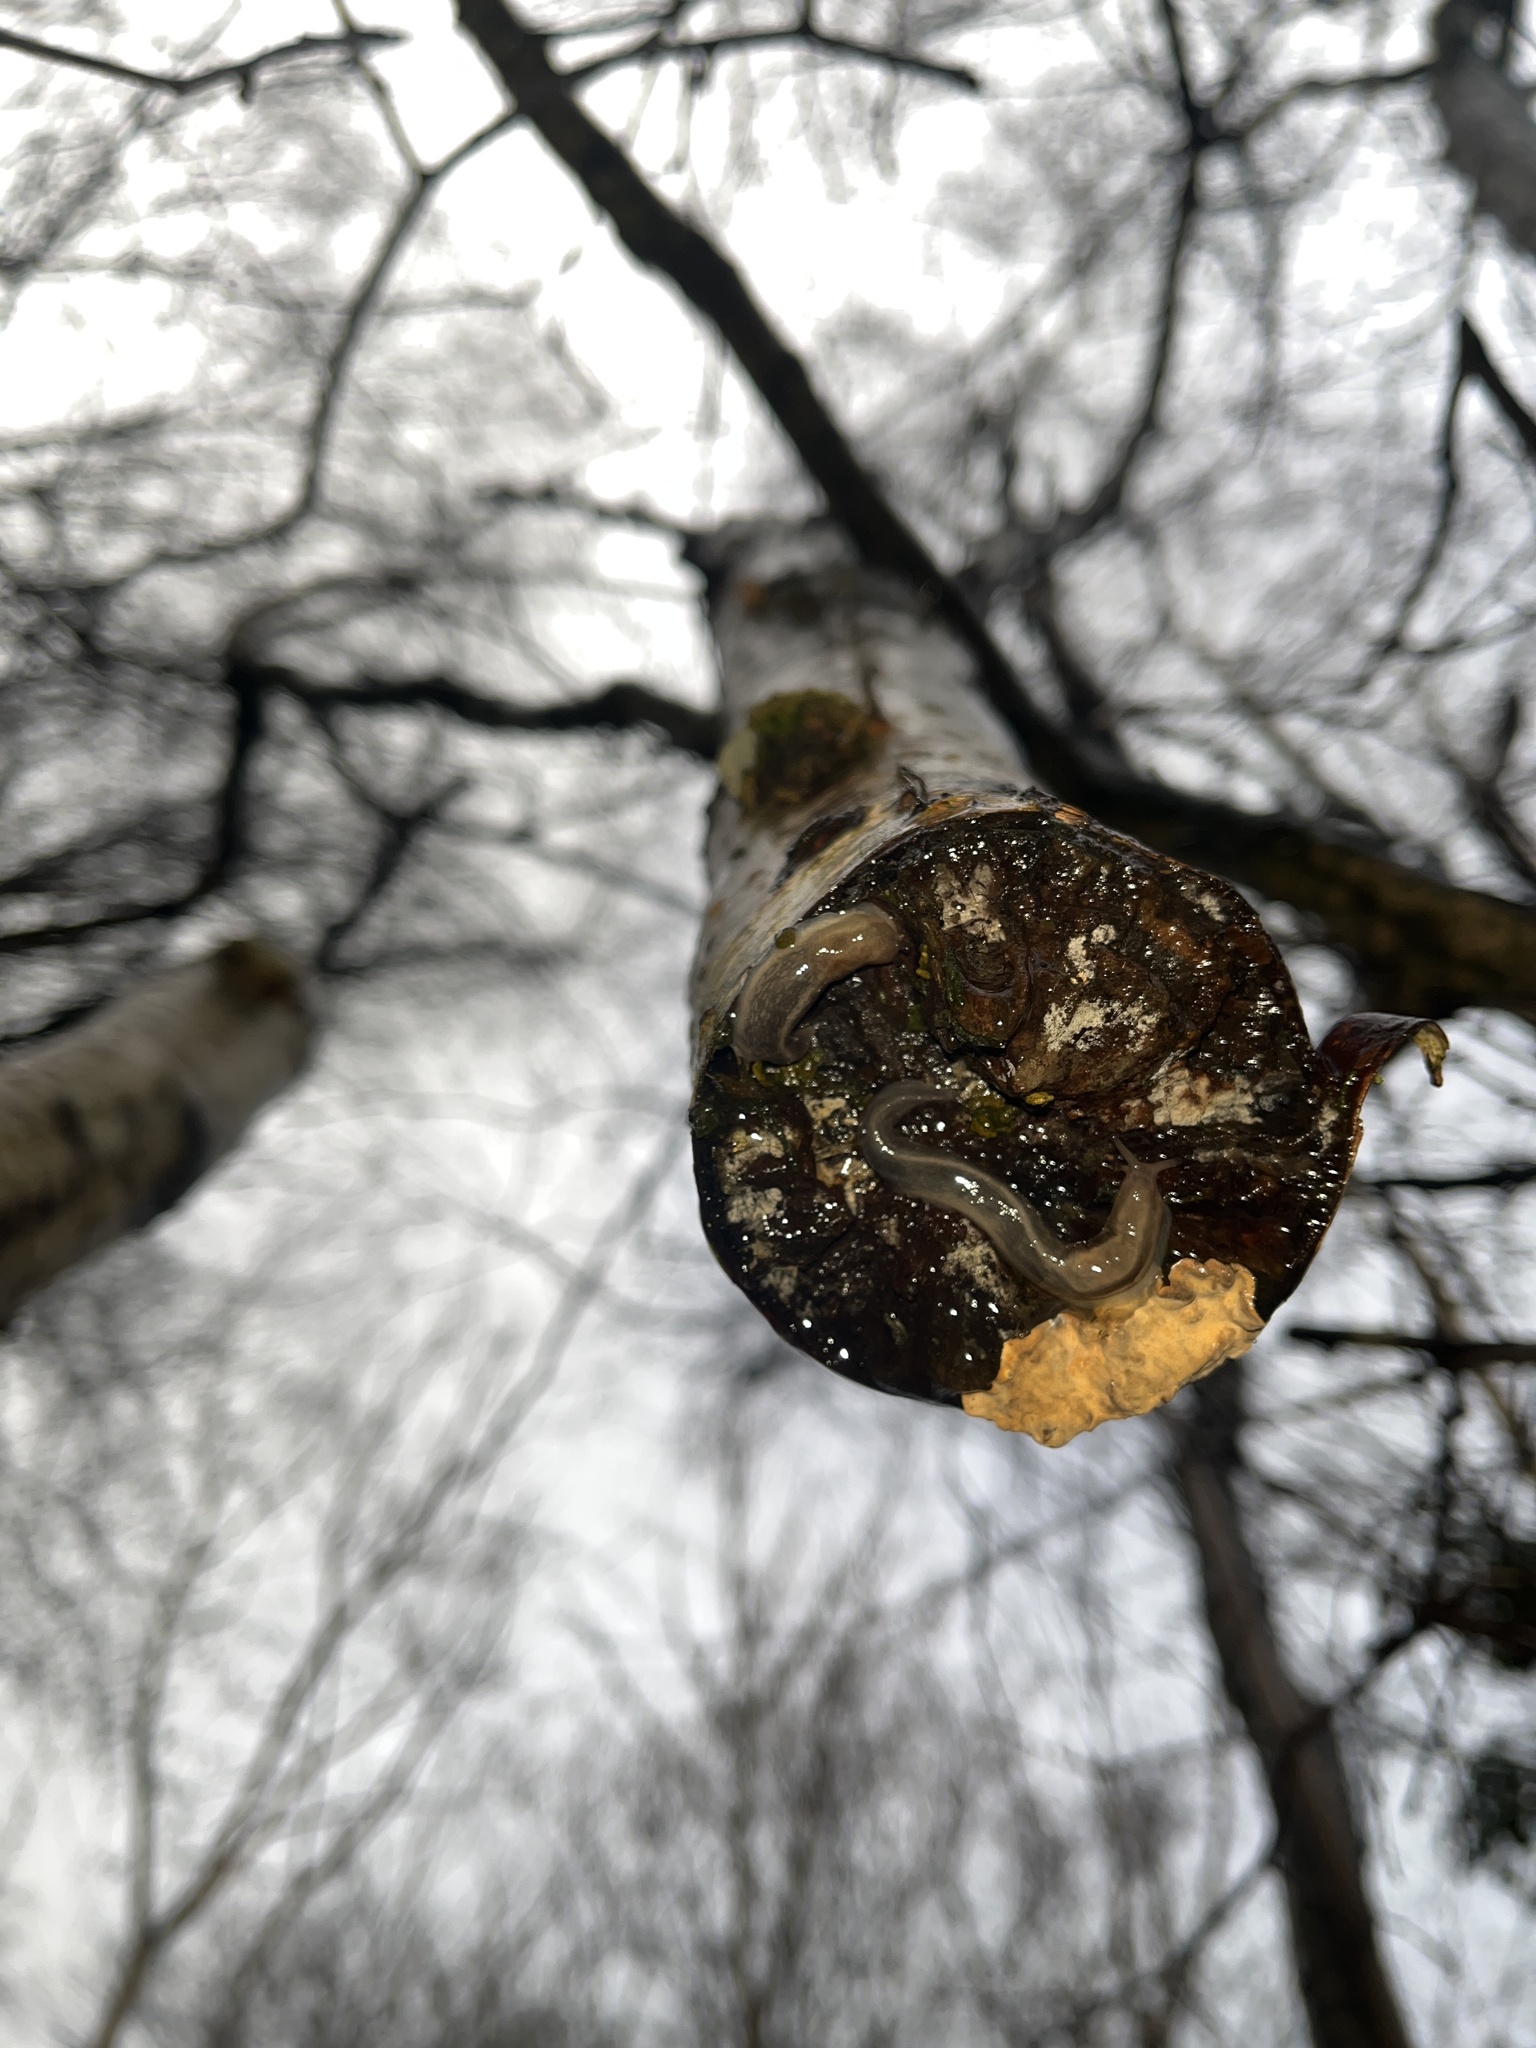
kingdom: Animalia
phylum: Mollusca
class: Gastropoda
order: Stylommatophora
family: Limacidae
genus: Lehmannia
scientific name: Lehmannia marginata
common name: Tree slug
